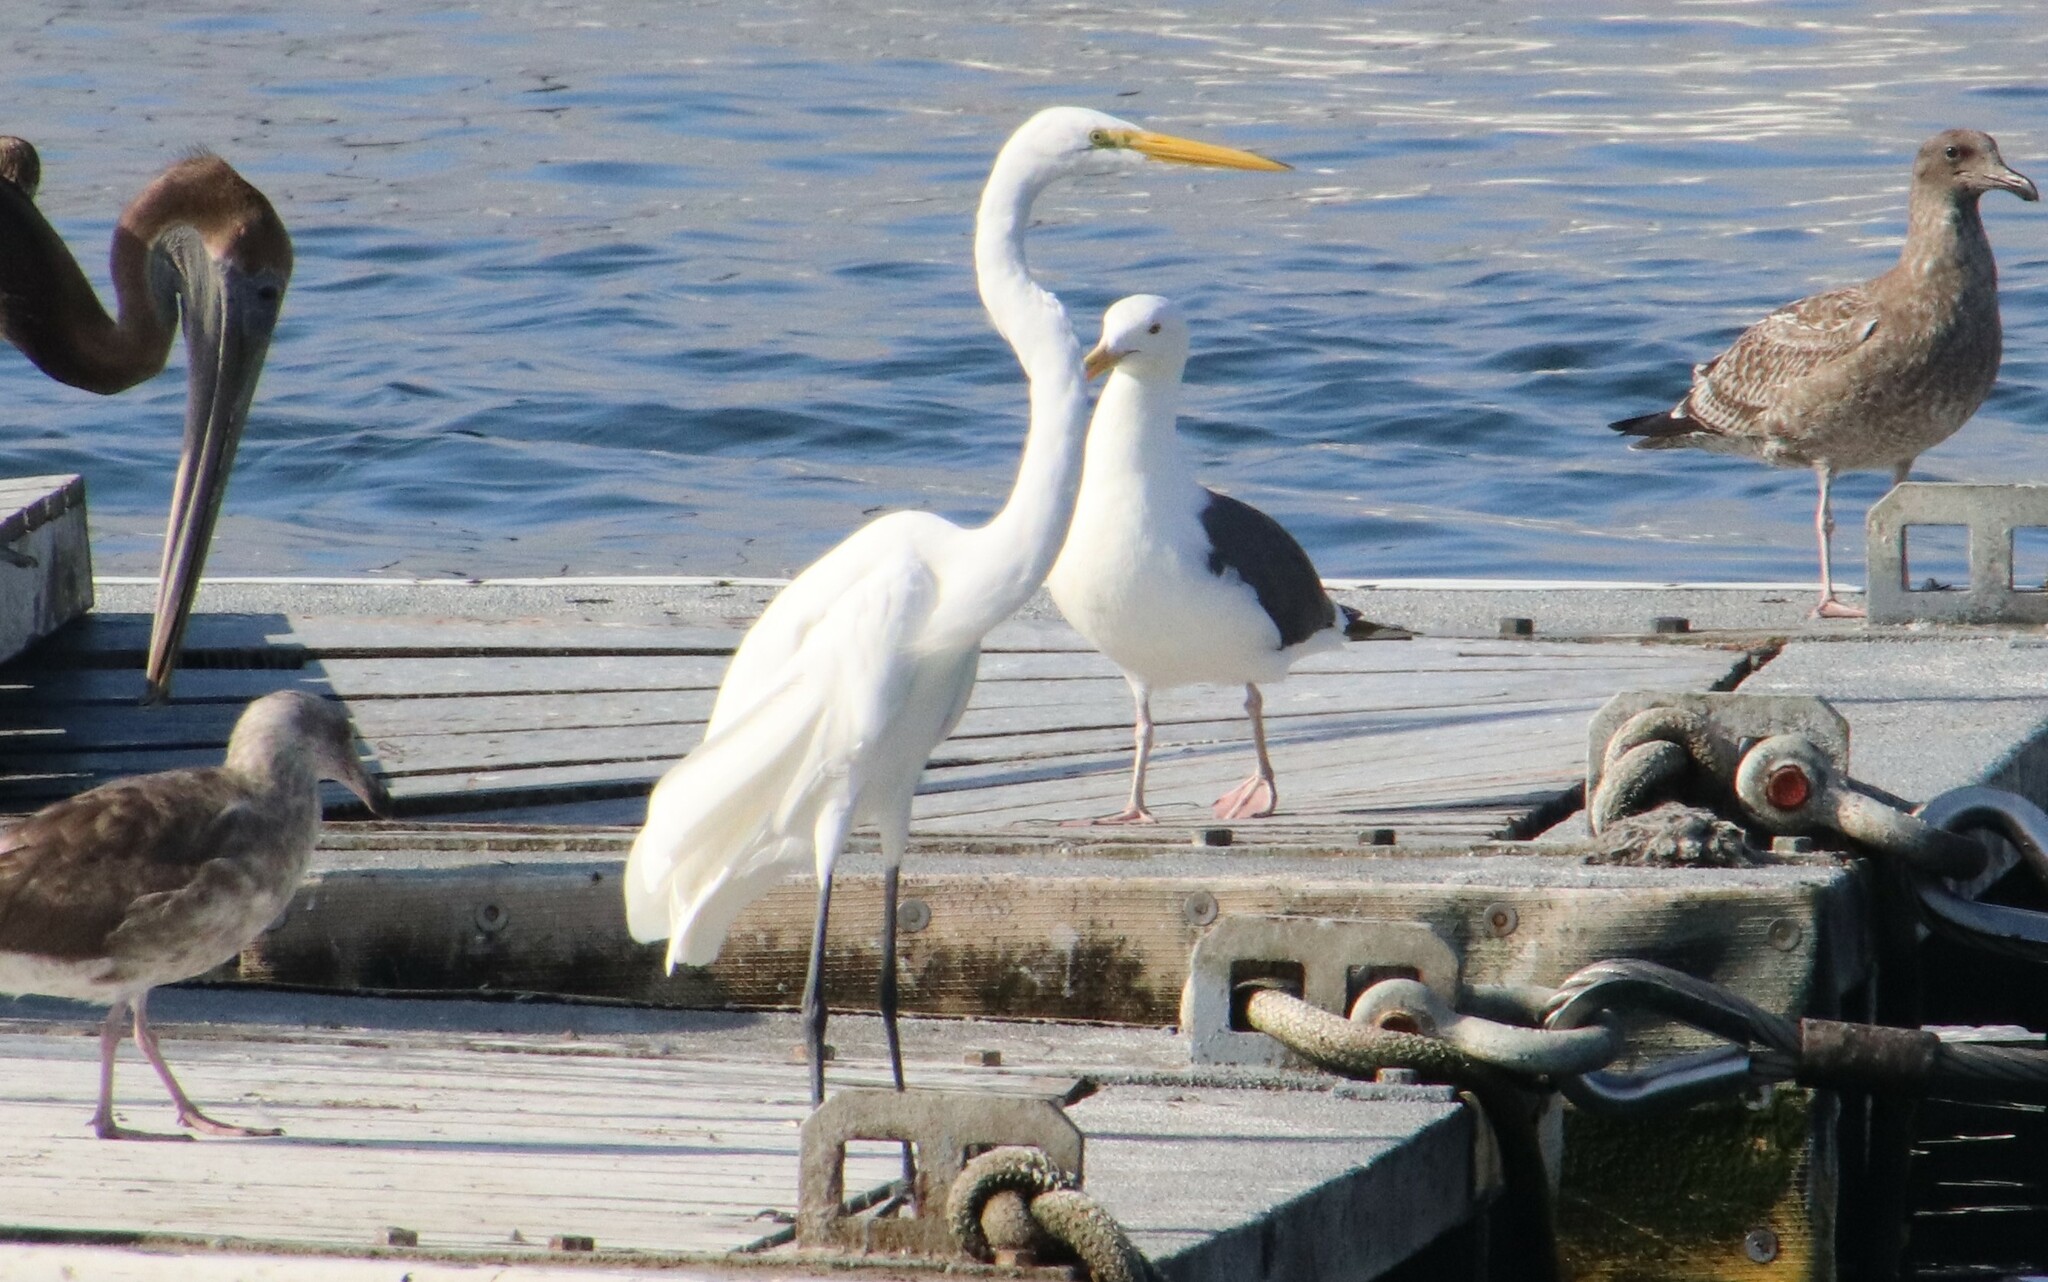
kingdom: Animalia
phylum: Chordata
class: Aves
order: Pelecaniformes
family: Ardeidae
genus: Ardea
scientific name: Ardea alba
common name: Great egret
